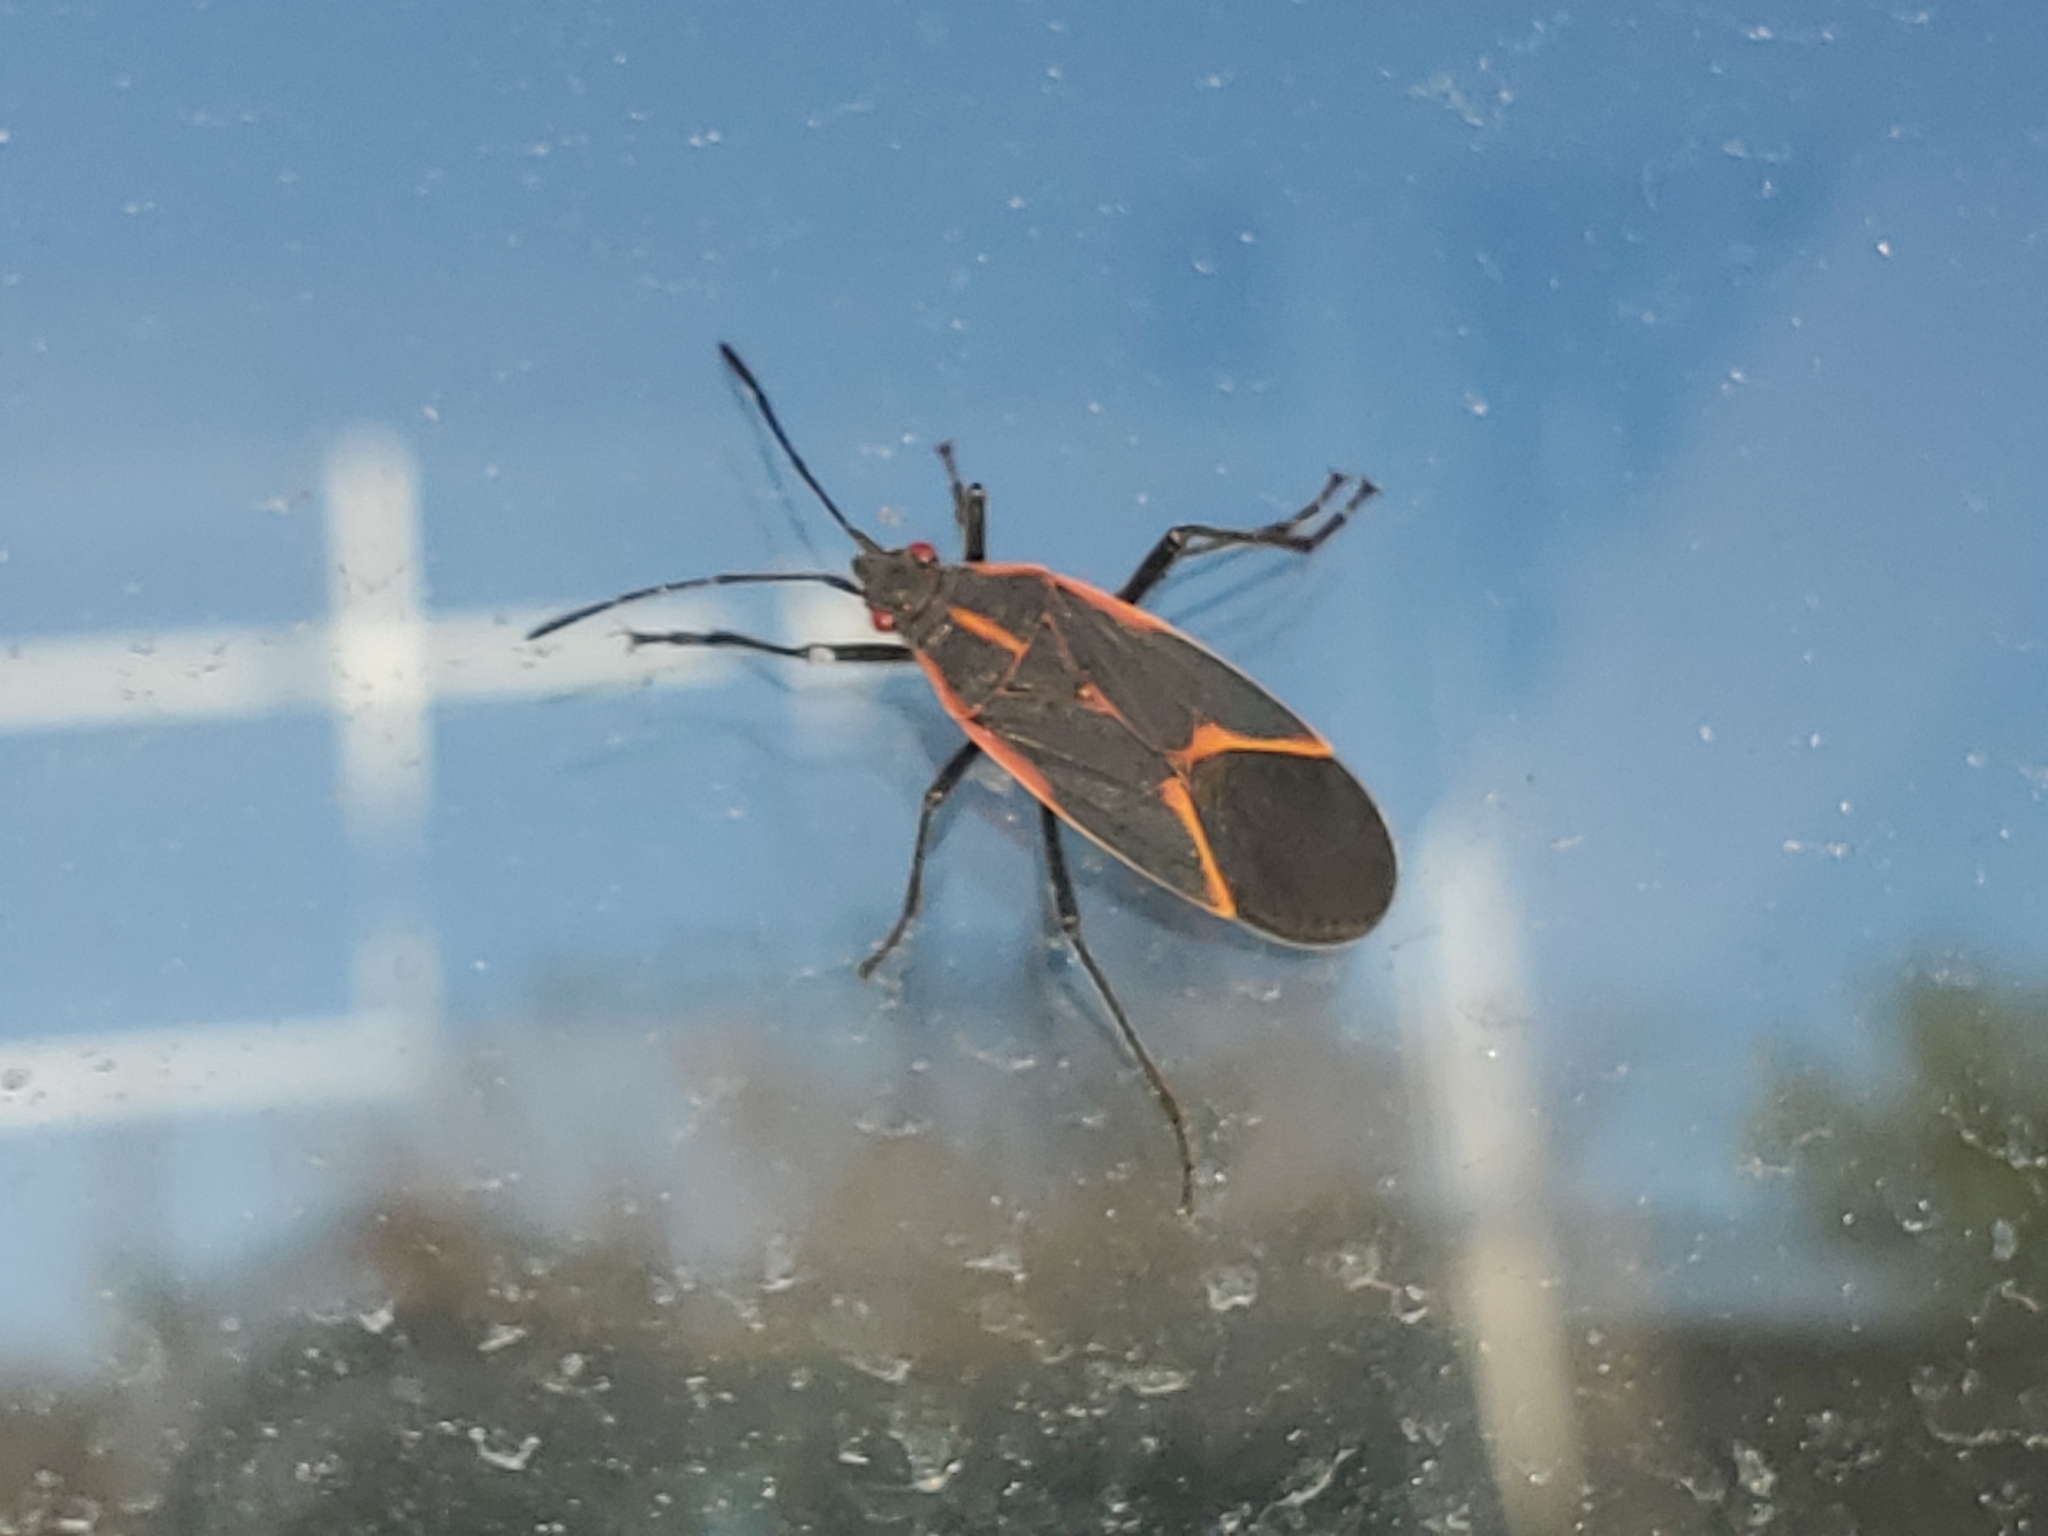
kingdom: Animalia
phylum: Arthropoda
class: Insecta
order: Hemiptera
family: Rhopalidae
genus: Boisea
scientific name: Boisea trivittata
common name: Boxelder bug
